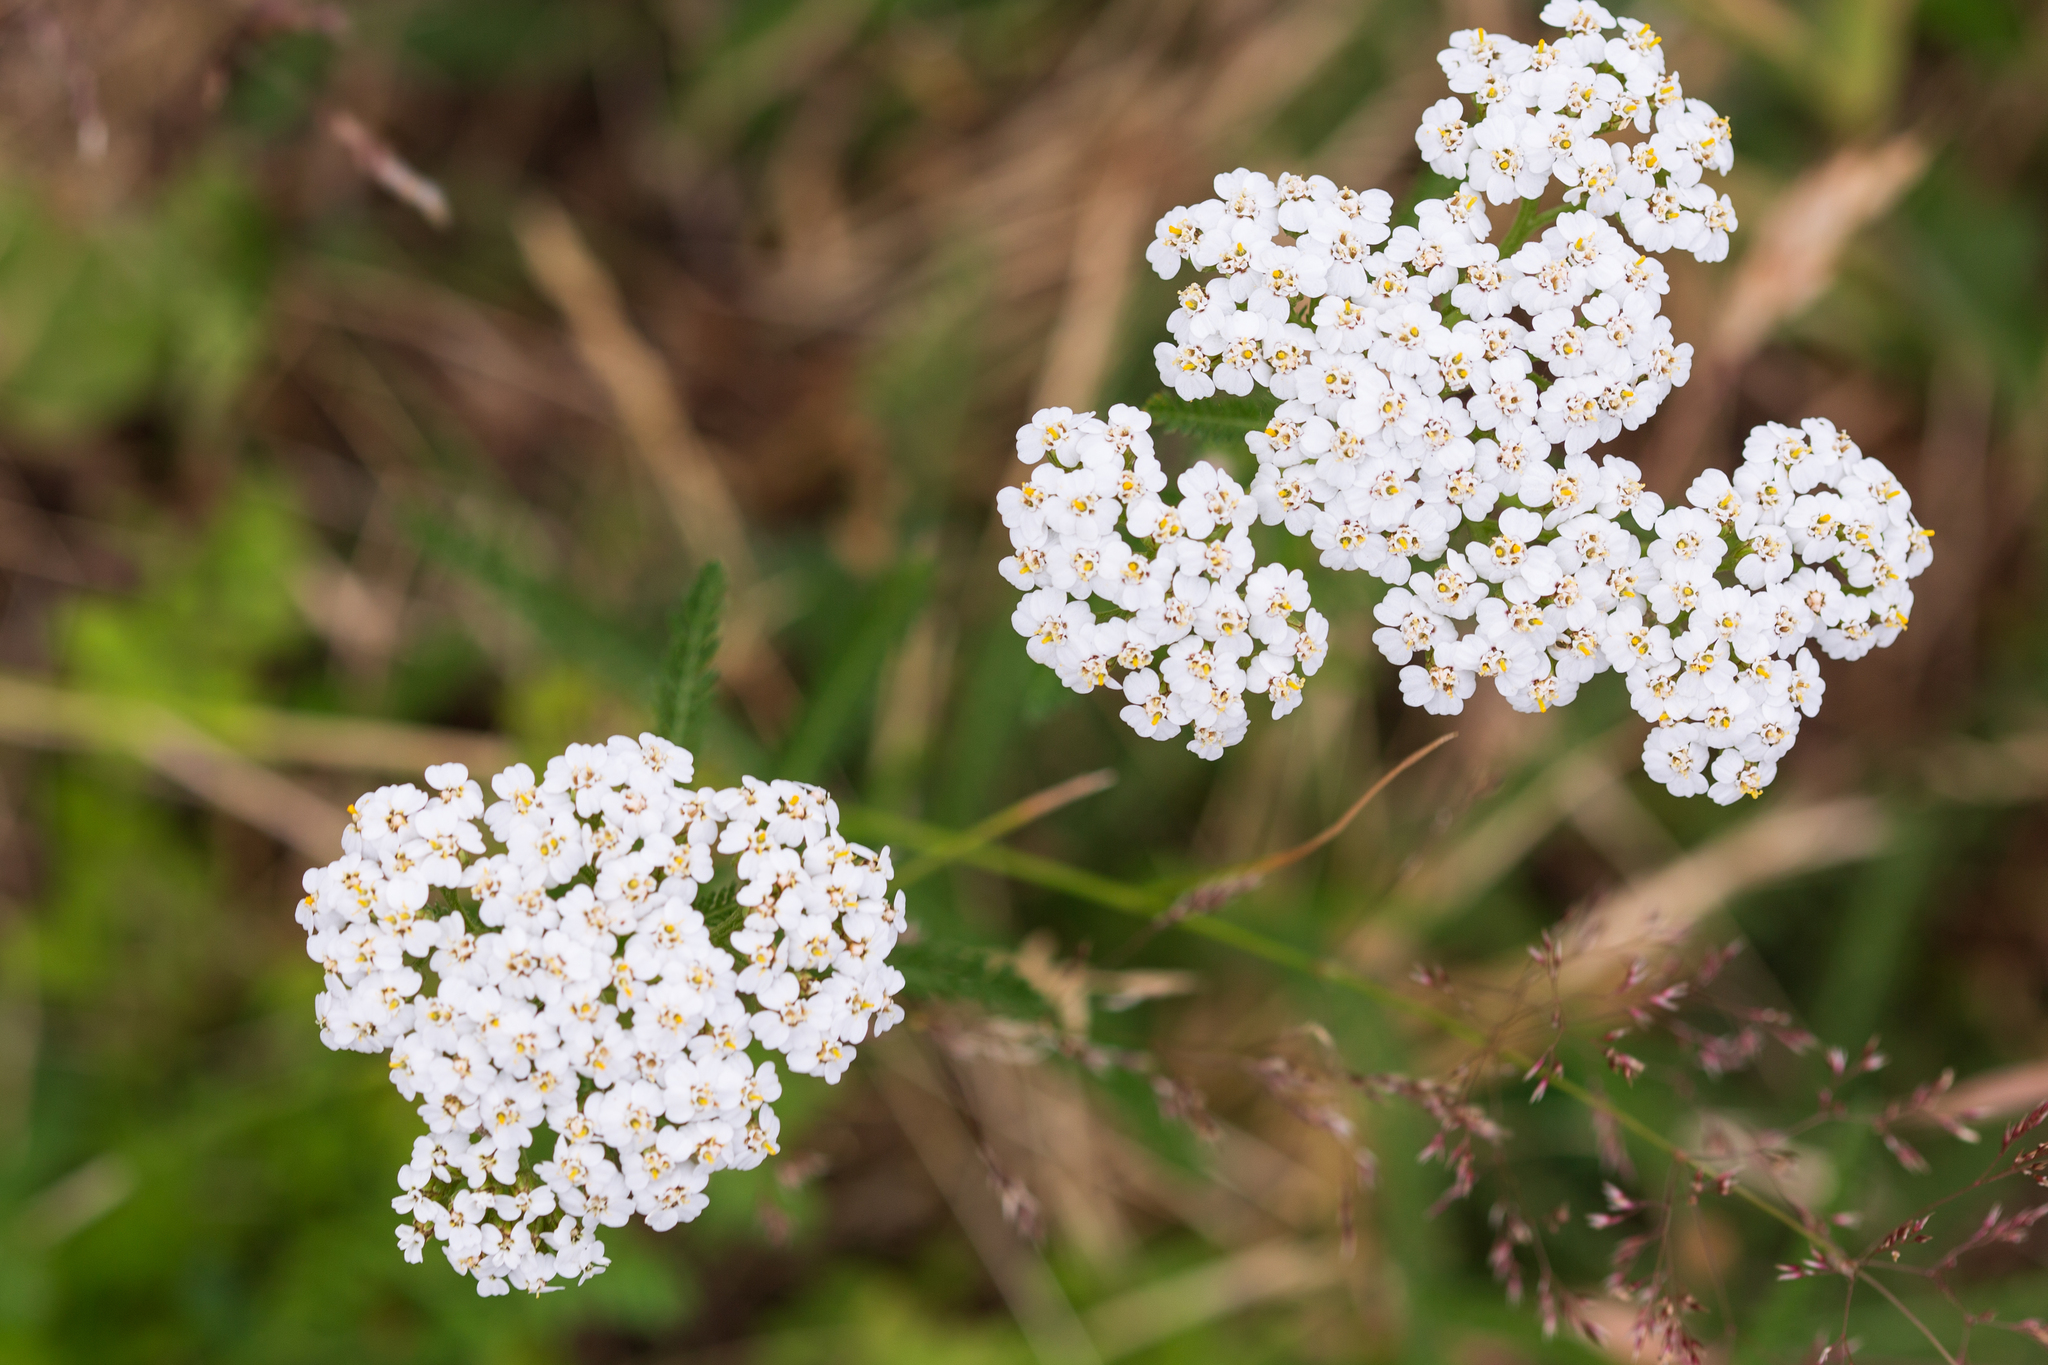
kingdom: Plantae
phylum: Tracheophyta
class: Magnoliopsida
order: Asterales
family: Asteraceae
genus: Achillea
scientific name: Achillea millefolium
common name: Yarrow
